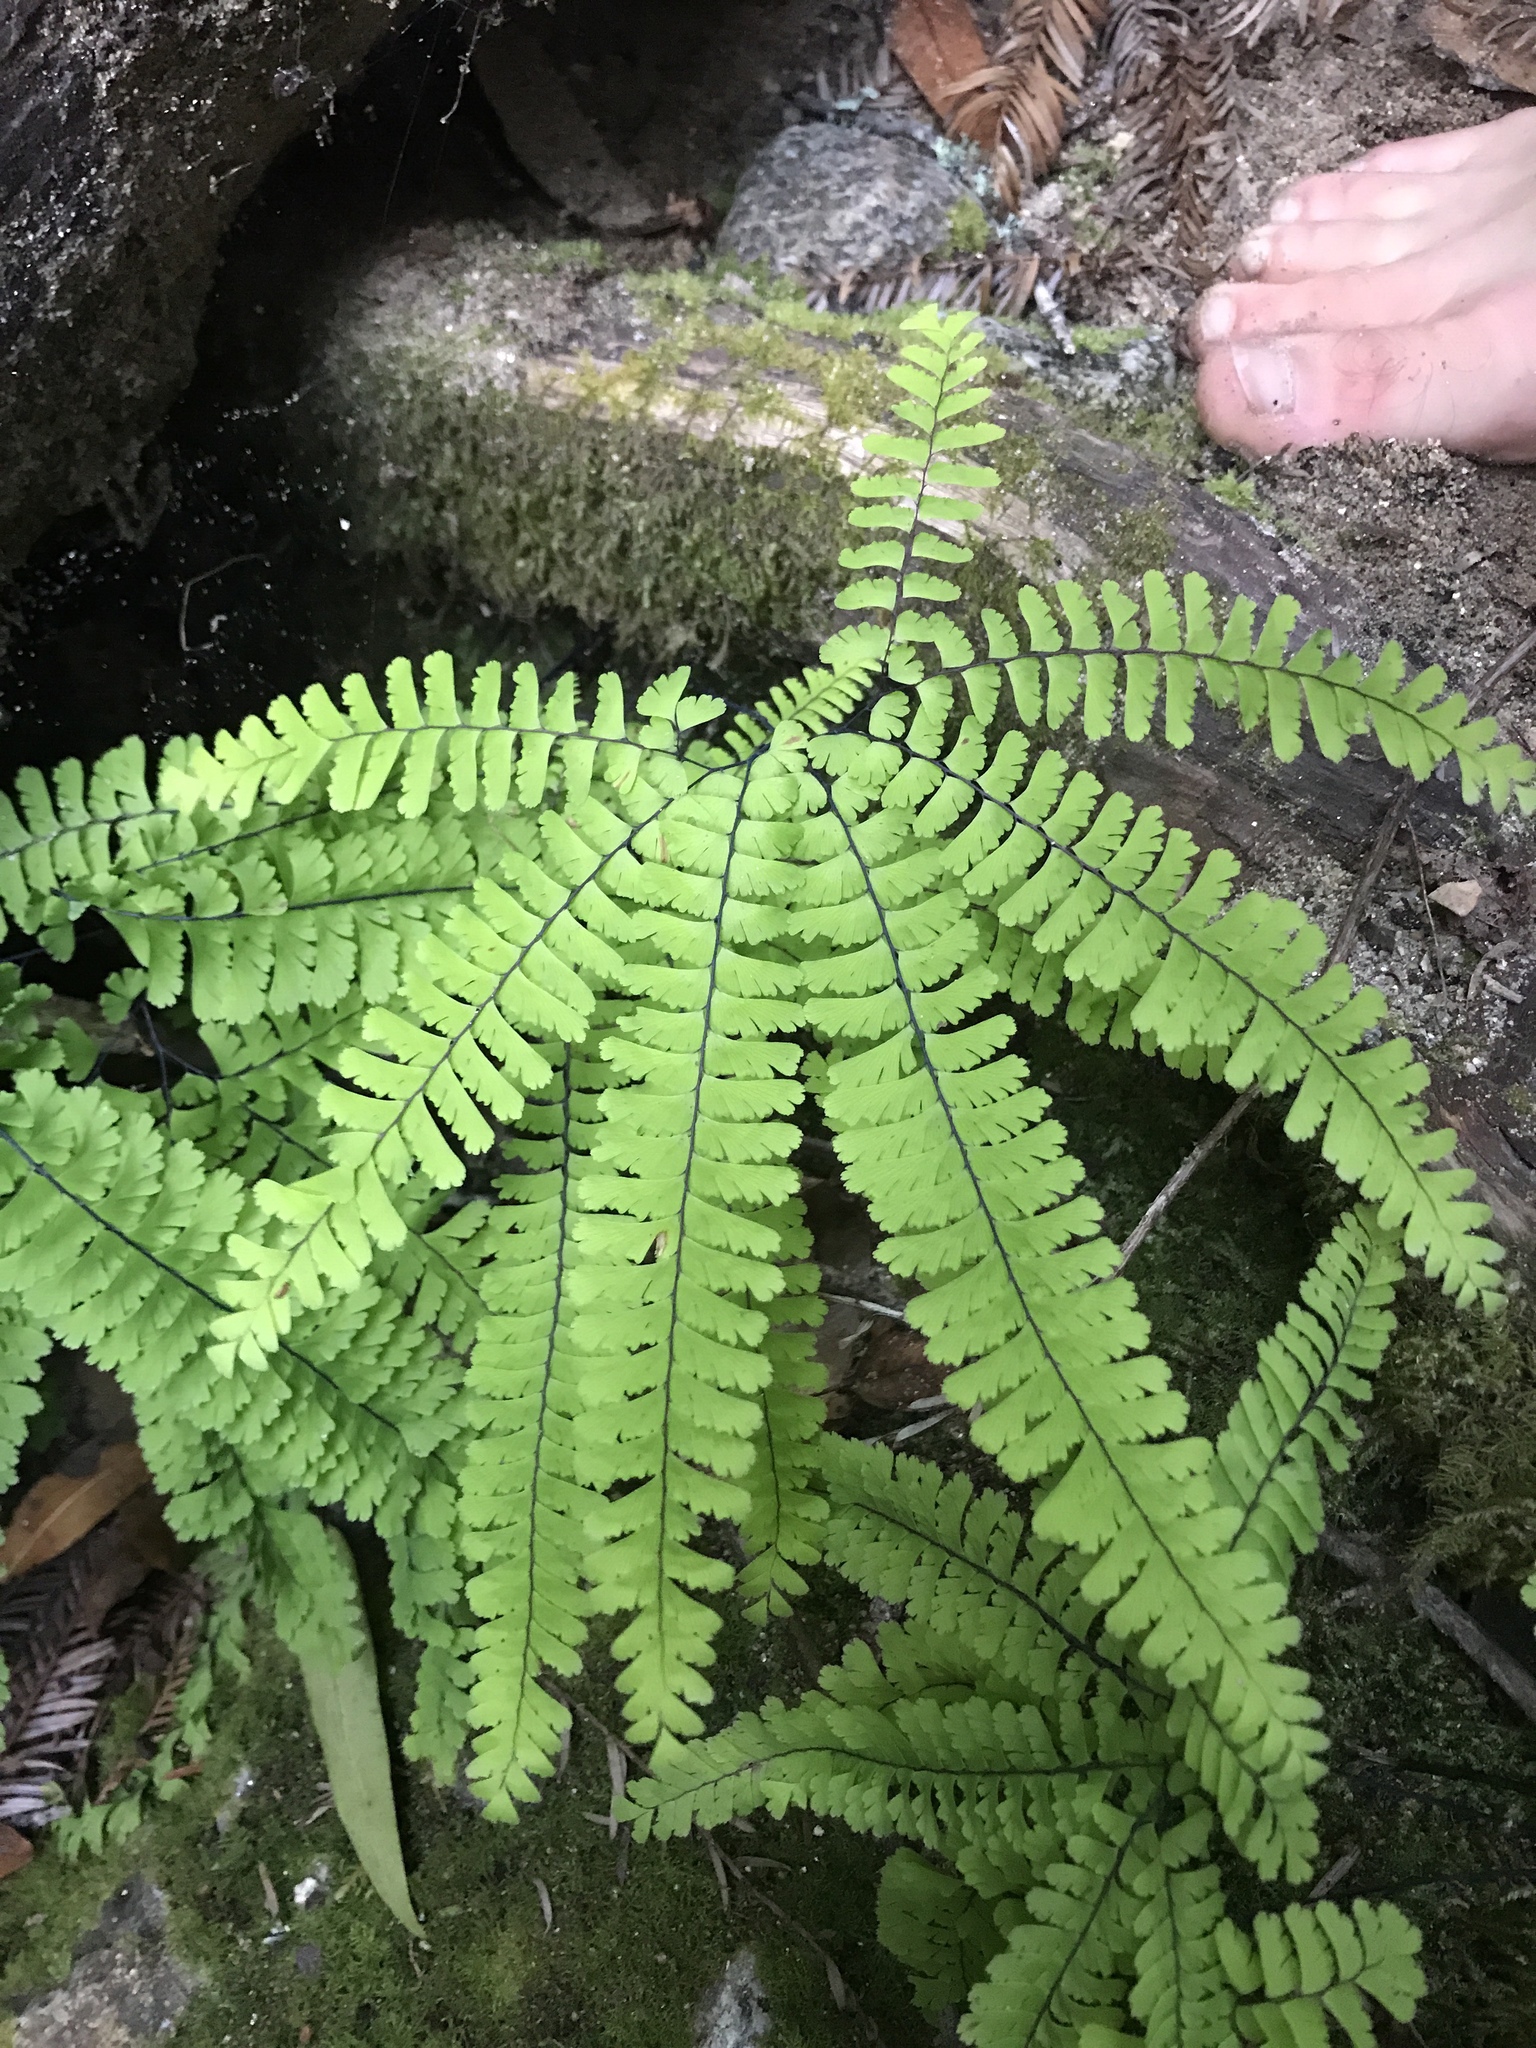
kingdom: Plantae
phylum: Tracheophyta
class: Polypodiopsida
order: Polypodiales
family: Pteridaceae
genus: Adiantum
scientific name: Adiantum aleuticum
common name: Aleutian maidenhair fern
